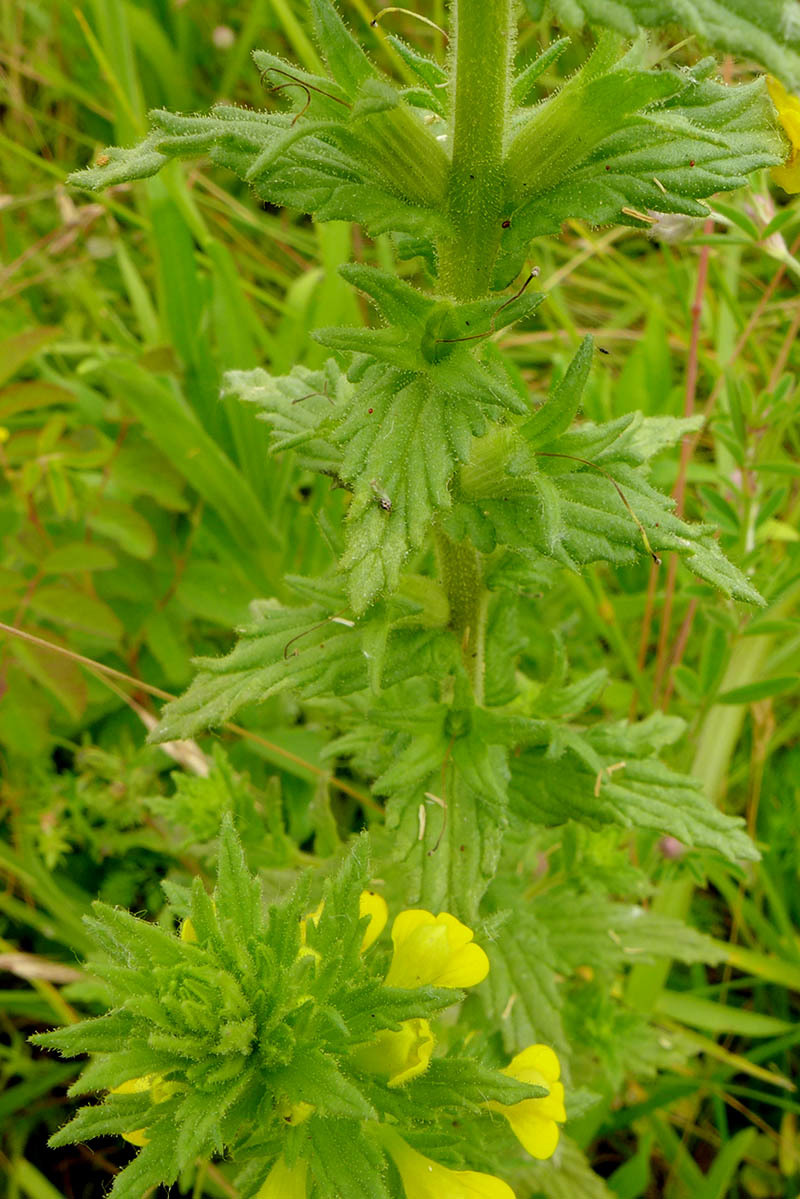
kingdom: Plantae
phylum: Tracheophyta
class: Magnoliopsida
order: Lamiales
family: Orobanchaceae
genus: Bellardia
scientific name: Bellardia viscosa
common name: Sticky parentucellia
